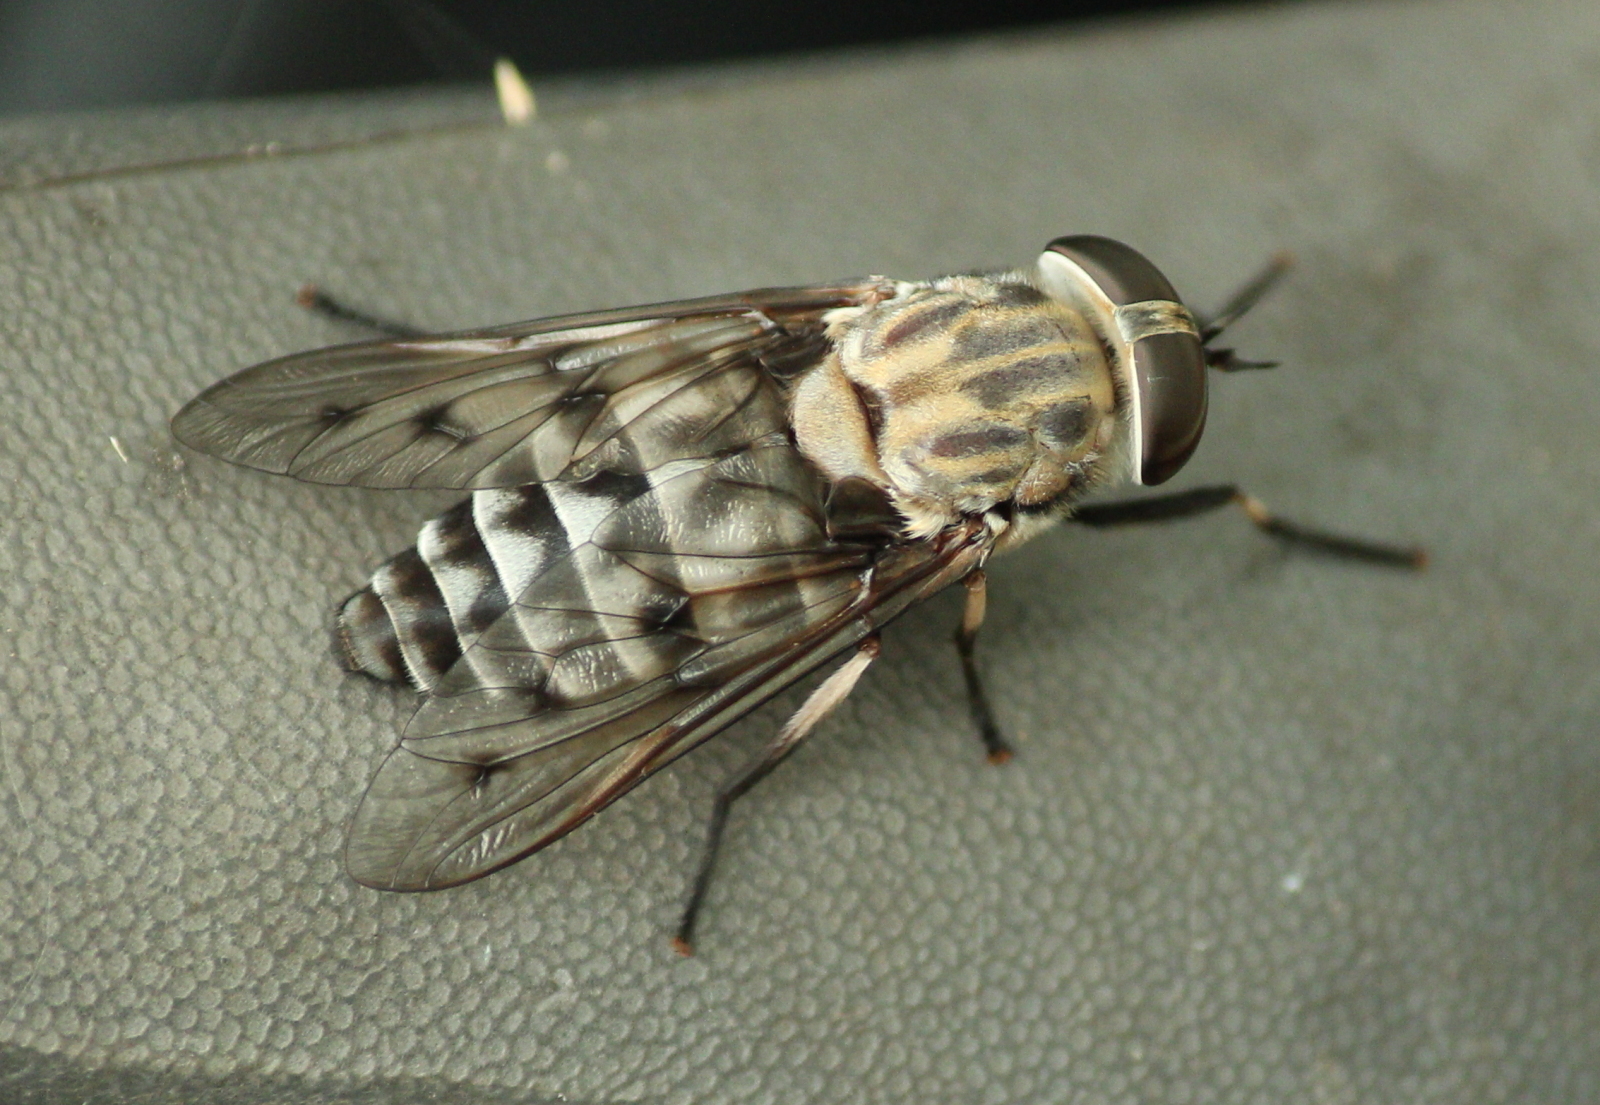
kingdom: Animalia
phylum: Arthropoda
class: Insecta
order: Diptera
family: Tabanidae
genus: Tabanus
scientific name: Tabanus cymatophorus
